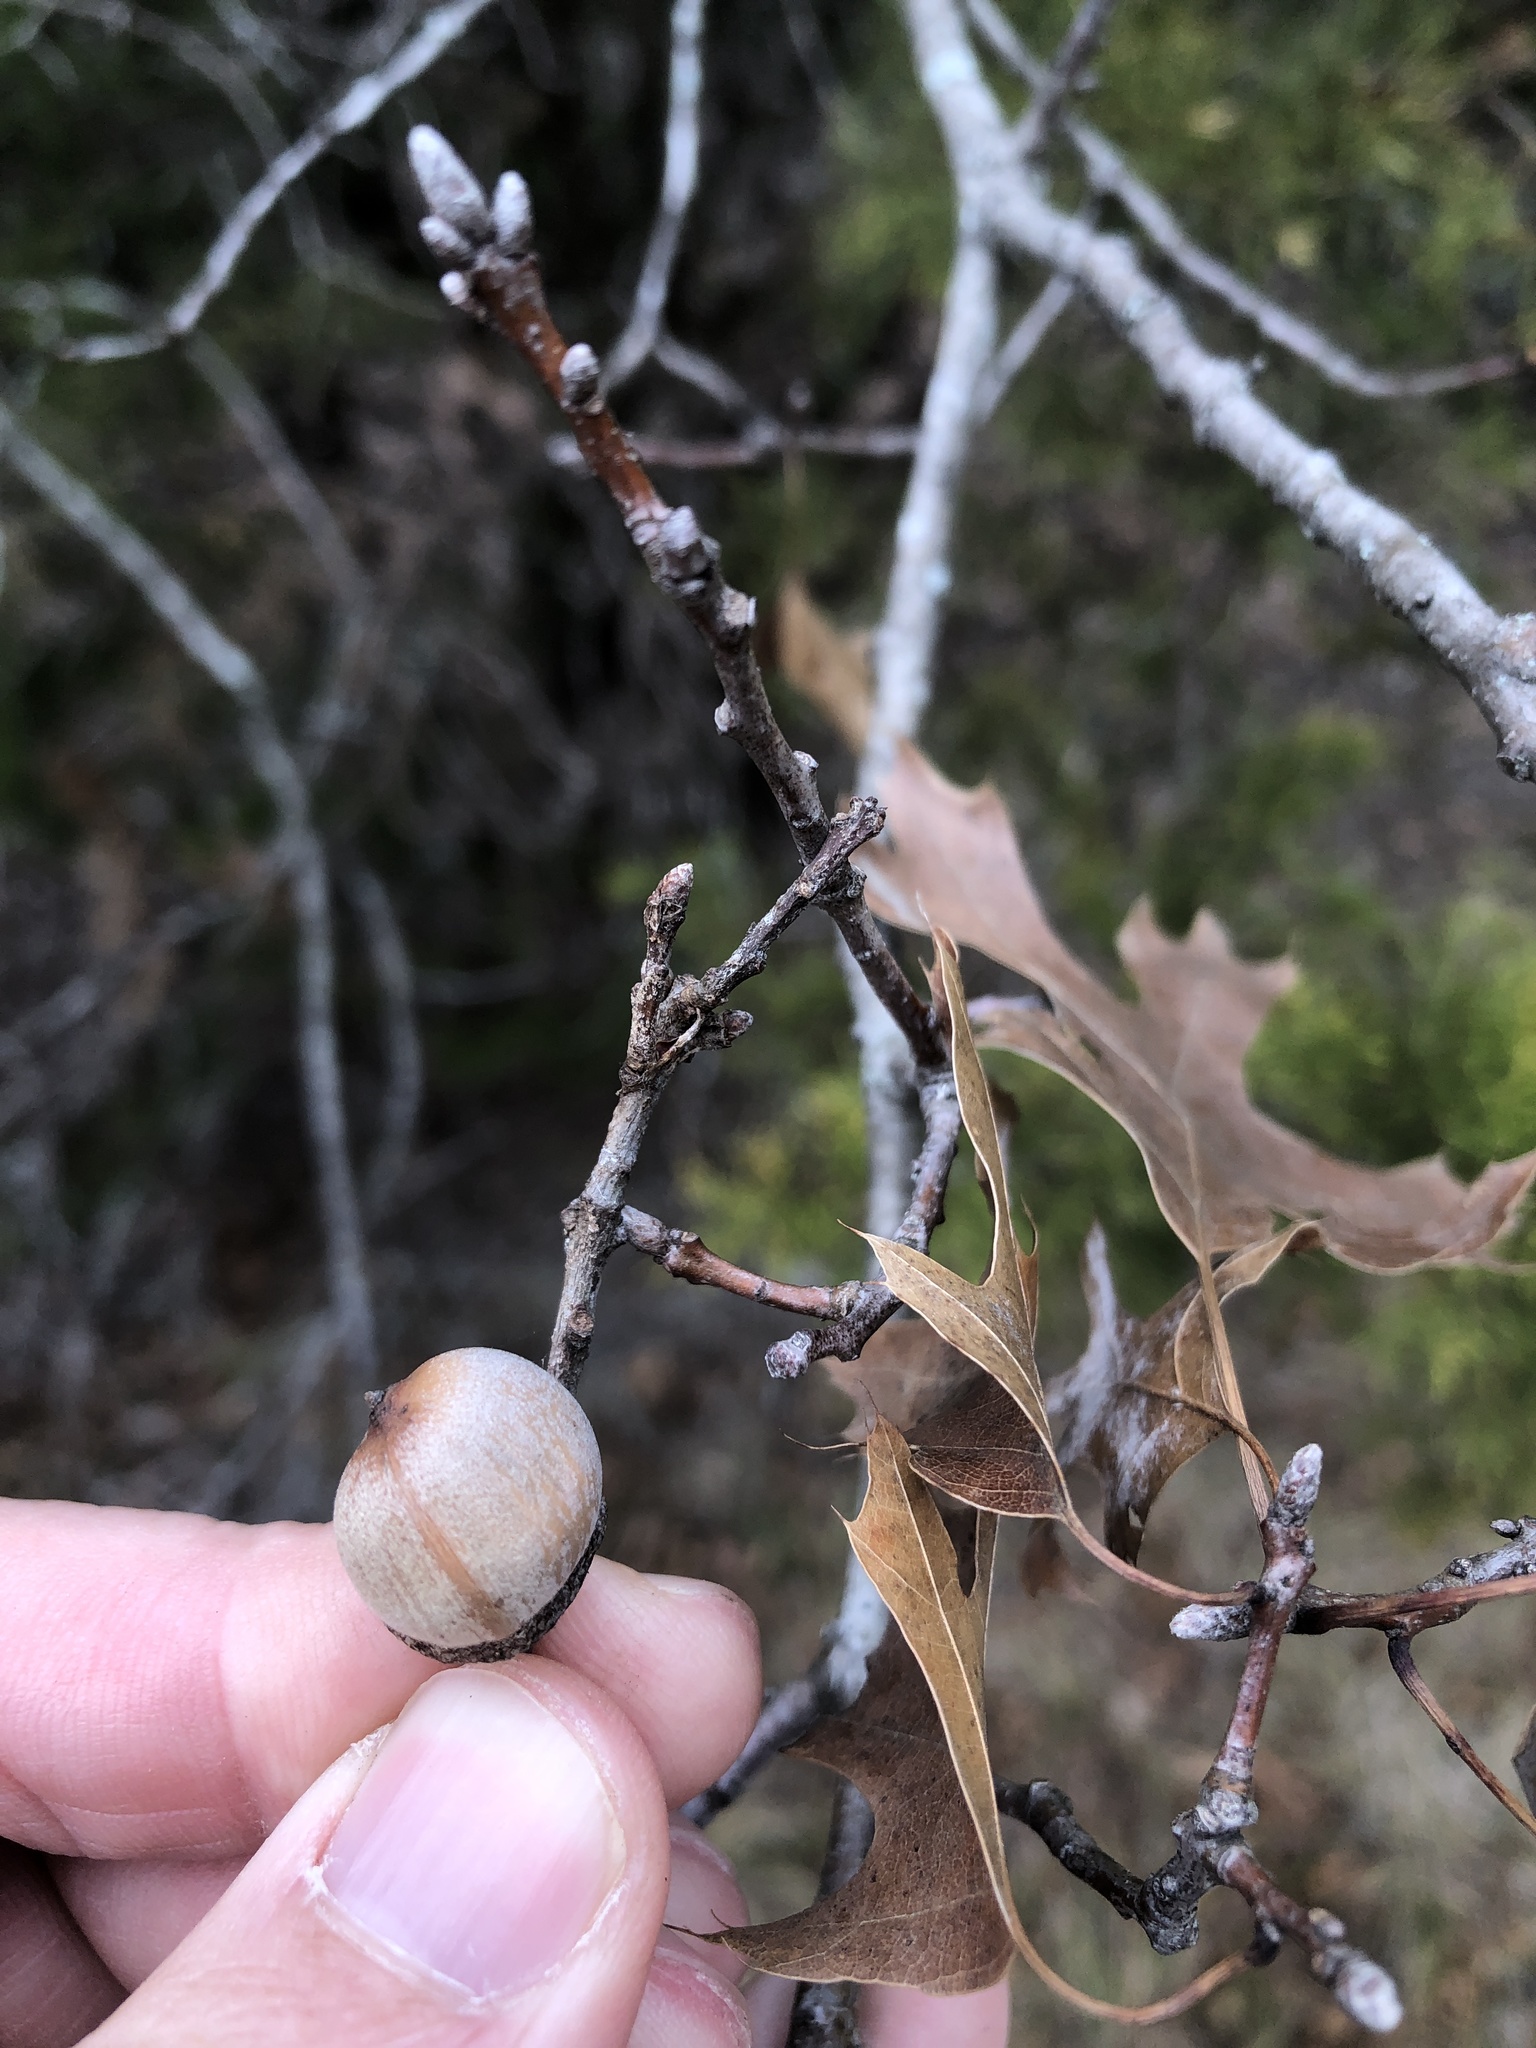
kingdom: Plantae
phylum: Tracheophyta
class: Magnoliopsida
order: Fagales
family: Fagaceae
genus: Quercus
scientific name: Quercus buckleyi
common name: Buckley oak
